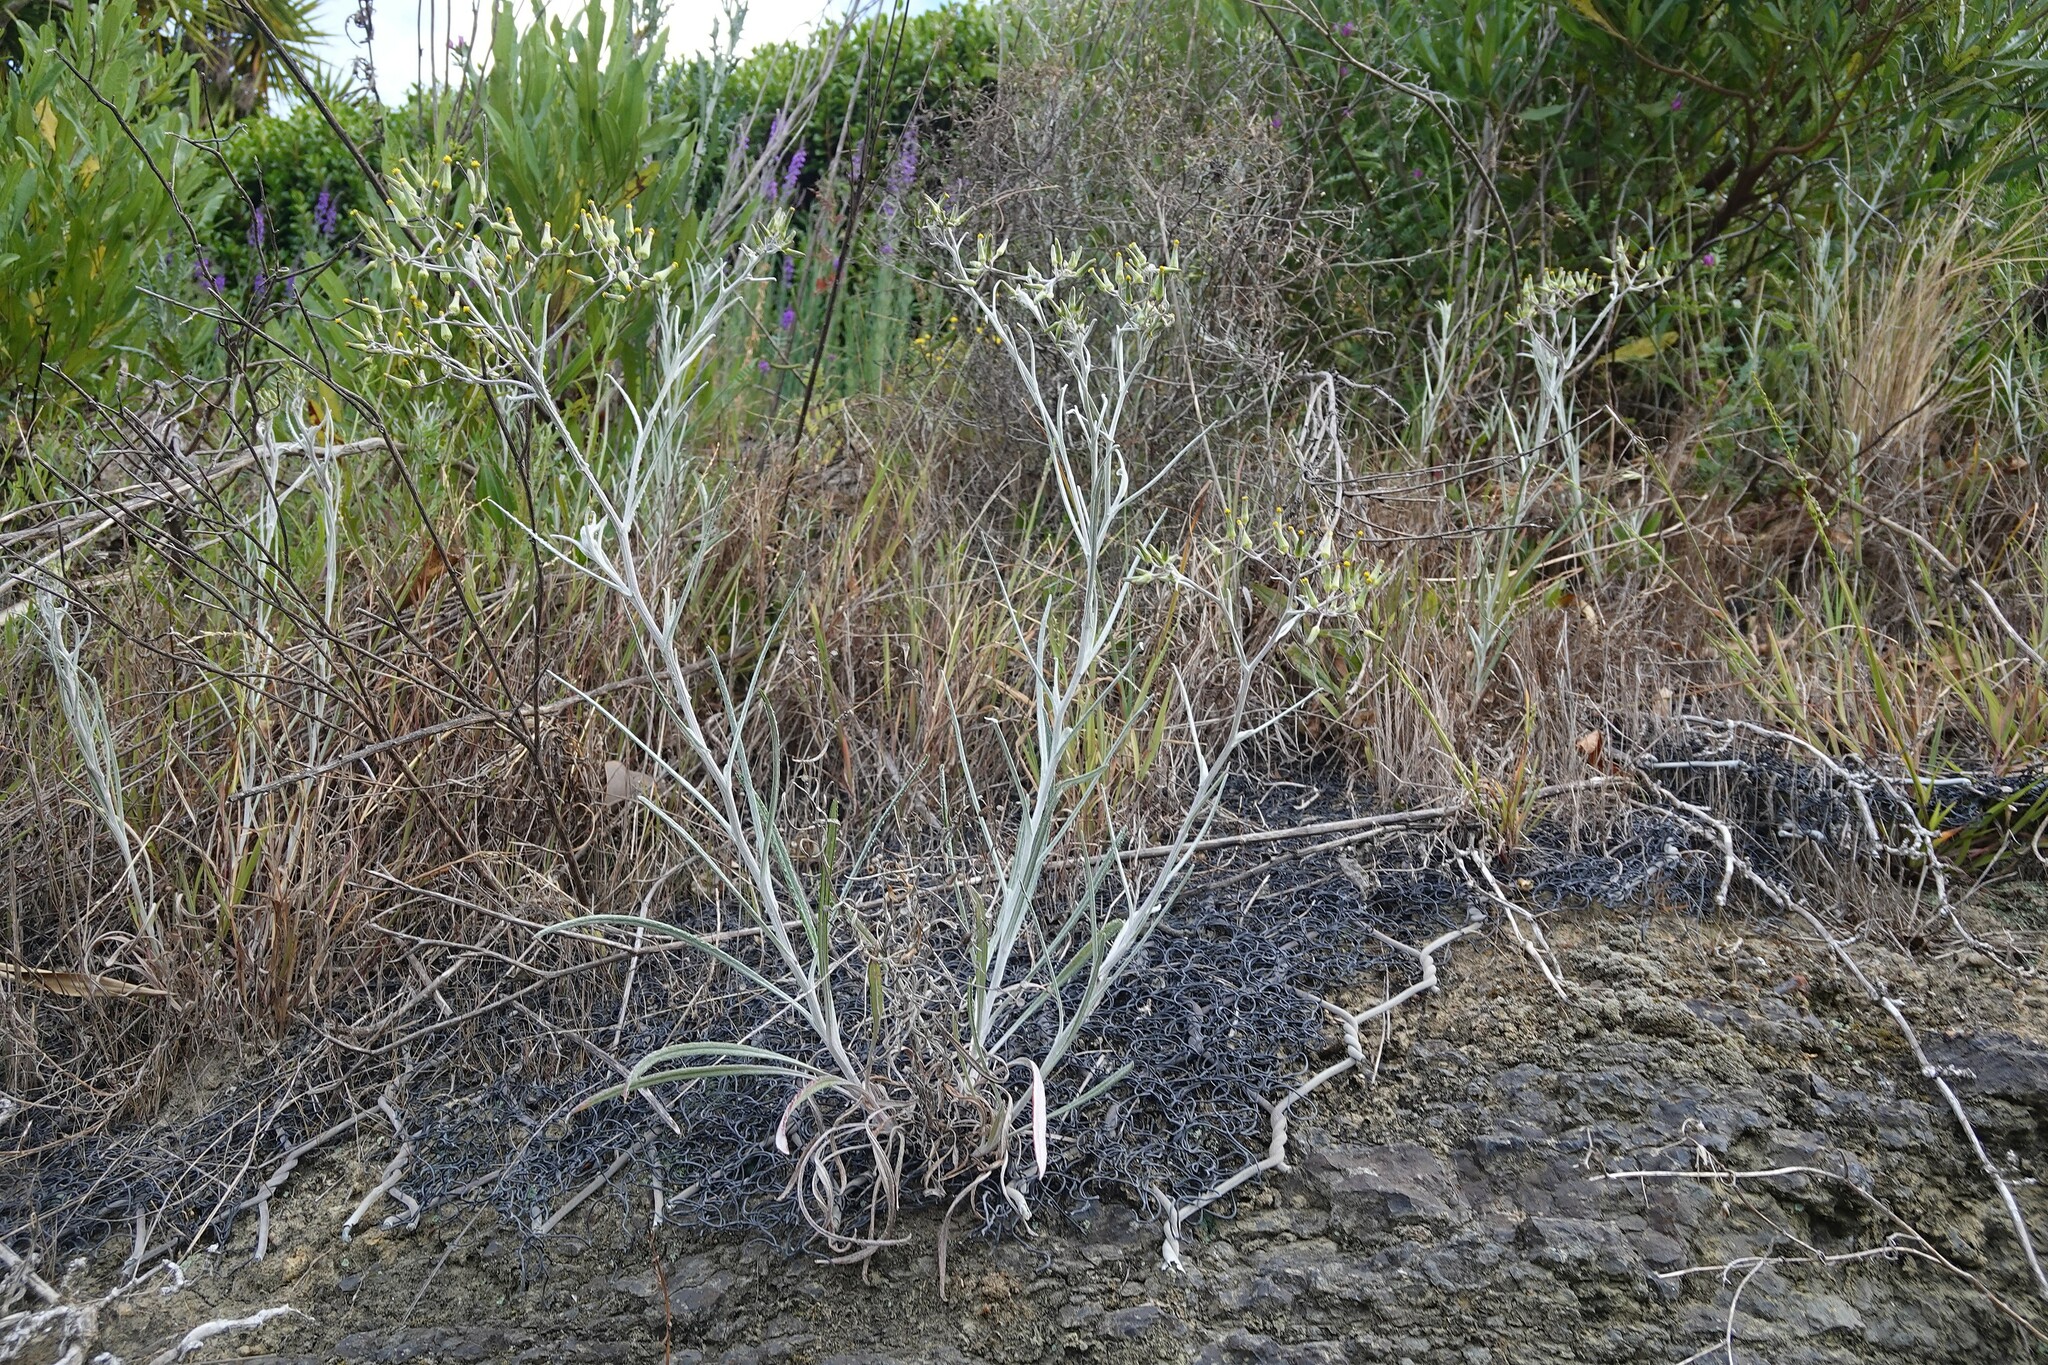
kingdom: Plantae
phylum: Tracheophyta
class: Magnoliopsida
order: Asterales
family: Asteraceae
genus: Senecio
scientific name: Senecio quadridentatus
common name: Cotton fireweed
